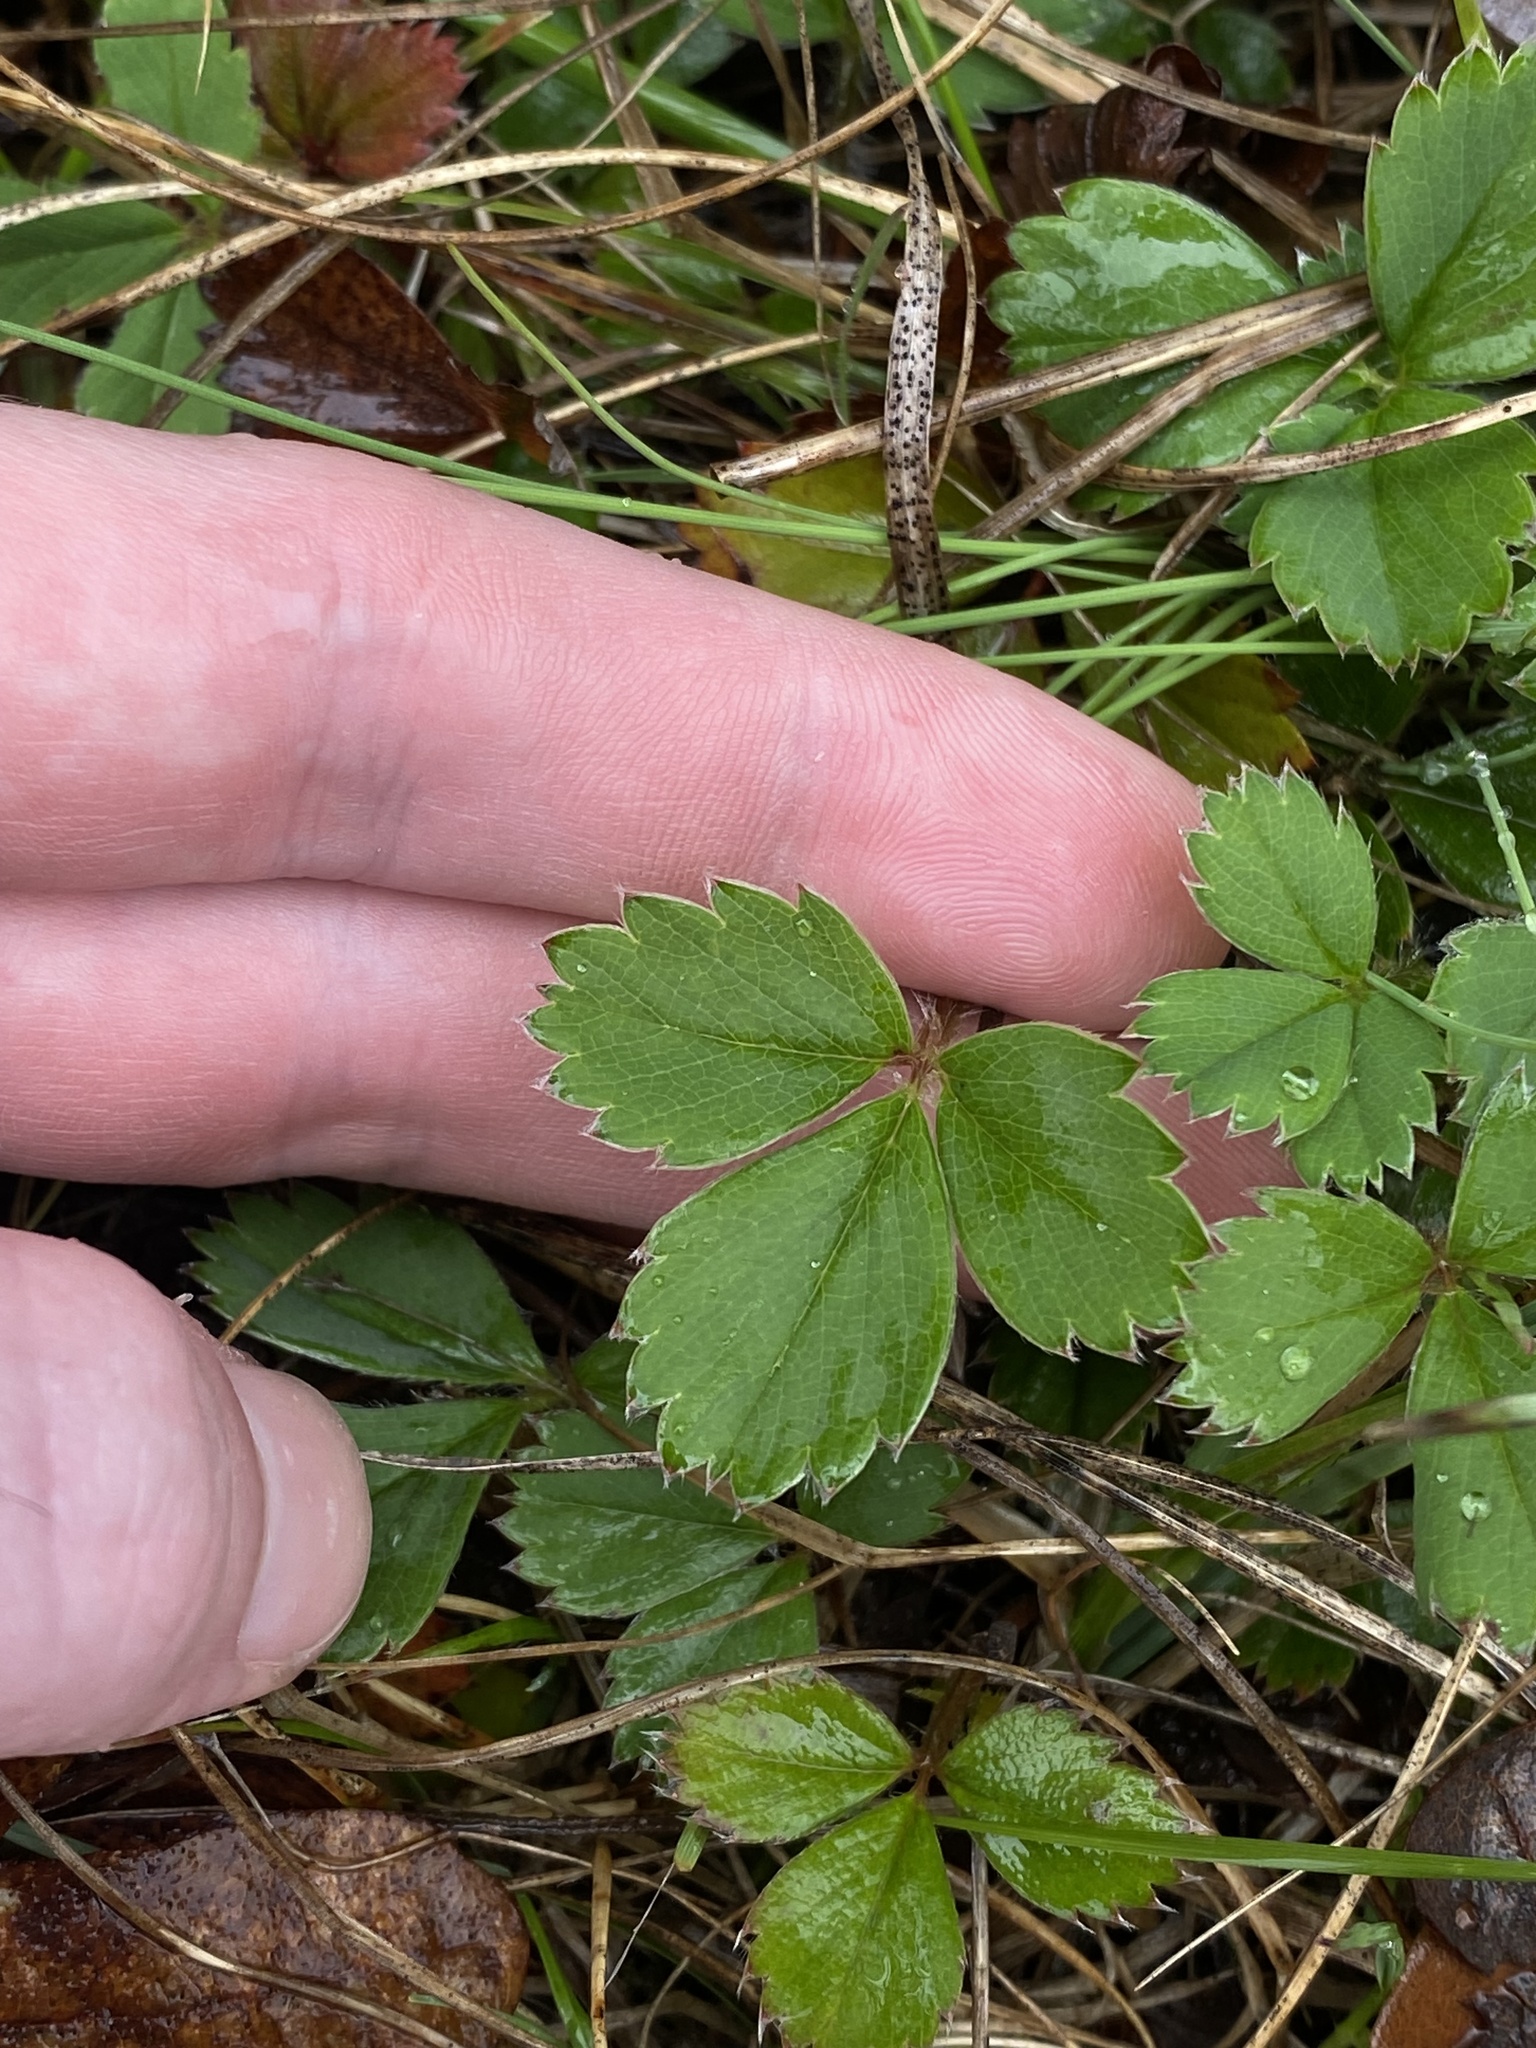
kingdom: Plantae
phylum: Tracheophyta
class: Magnoliopsida
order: Rosales
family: Rosaceae
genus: Fragaria
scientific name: Fragaria virginiana
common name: Thickleaved wild strawberry
